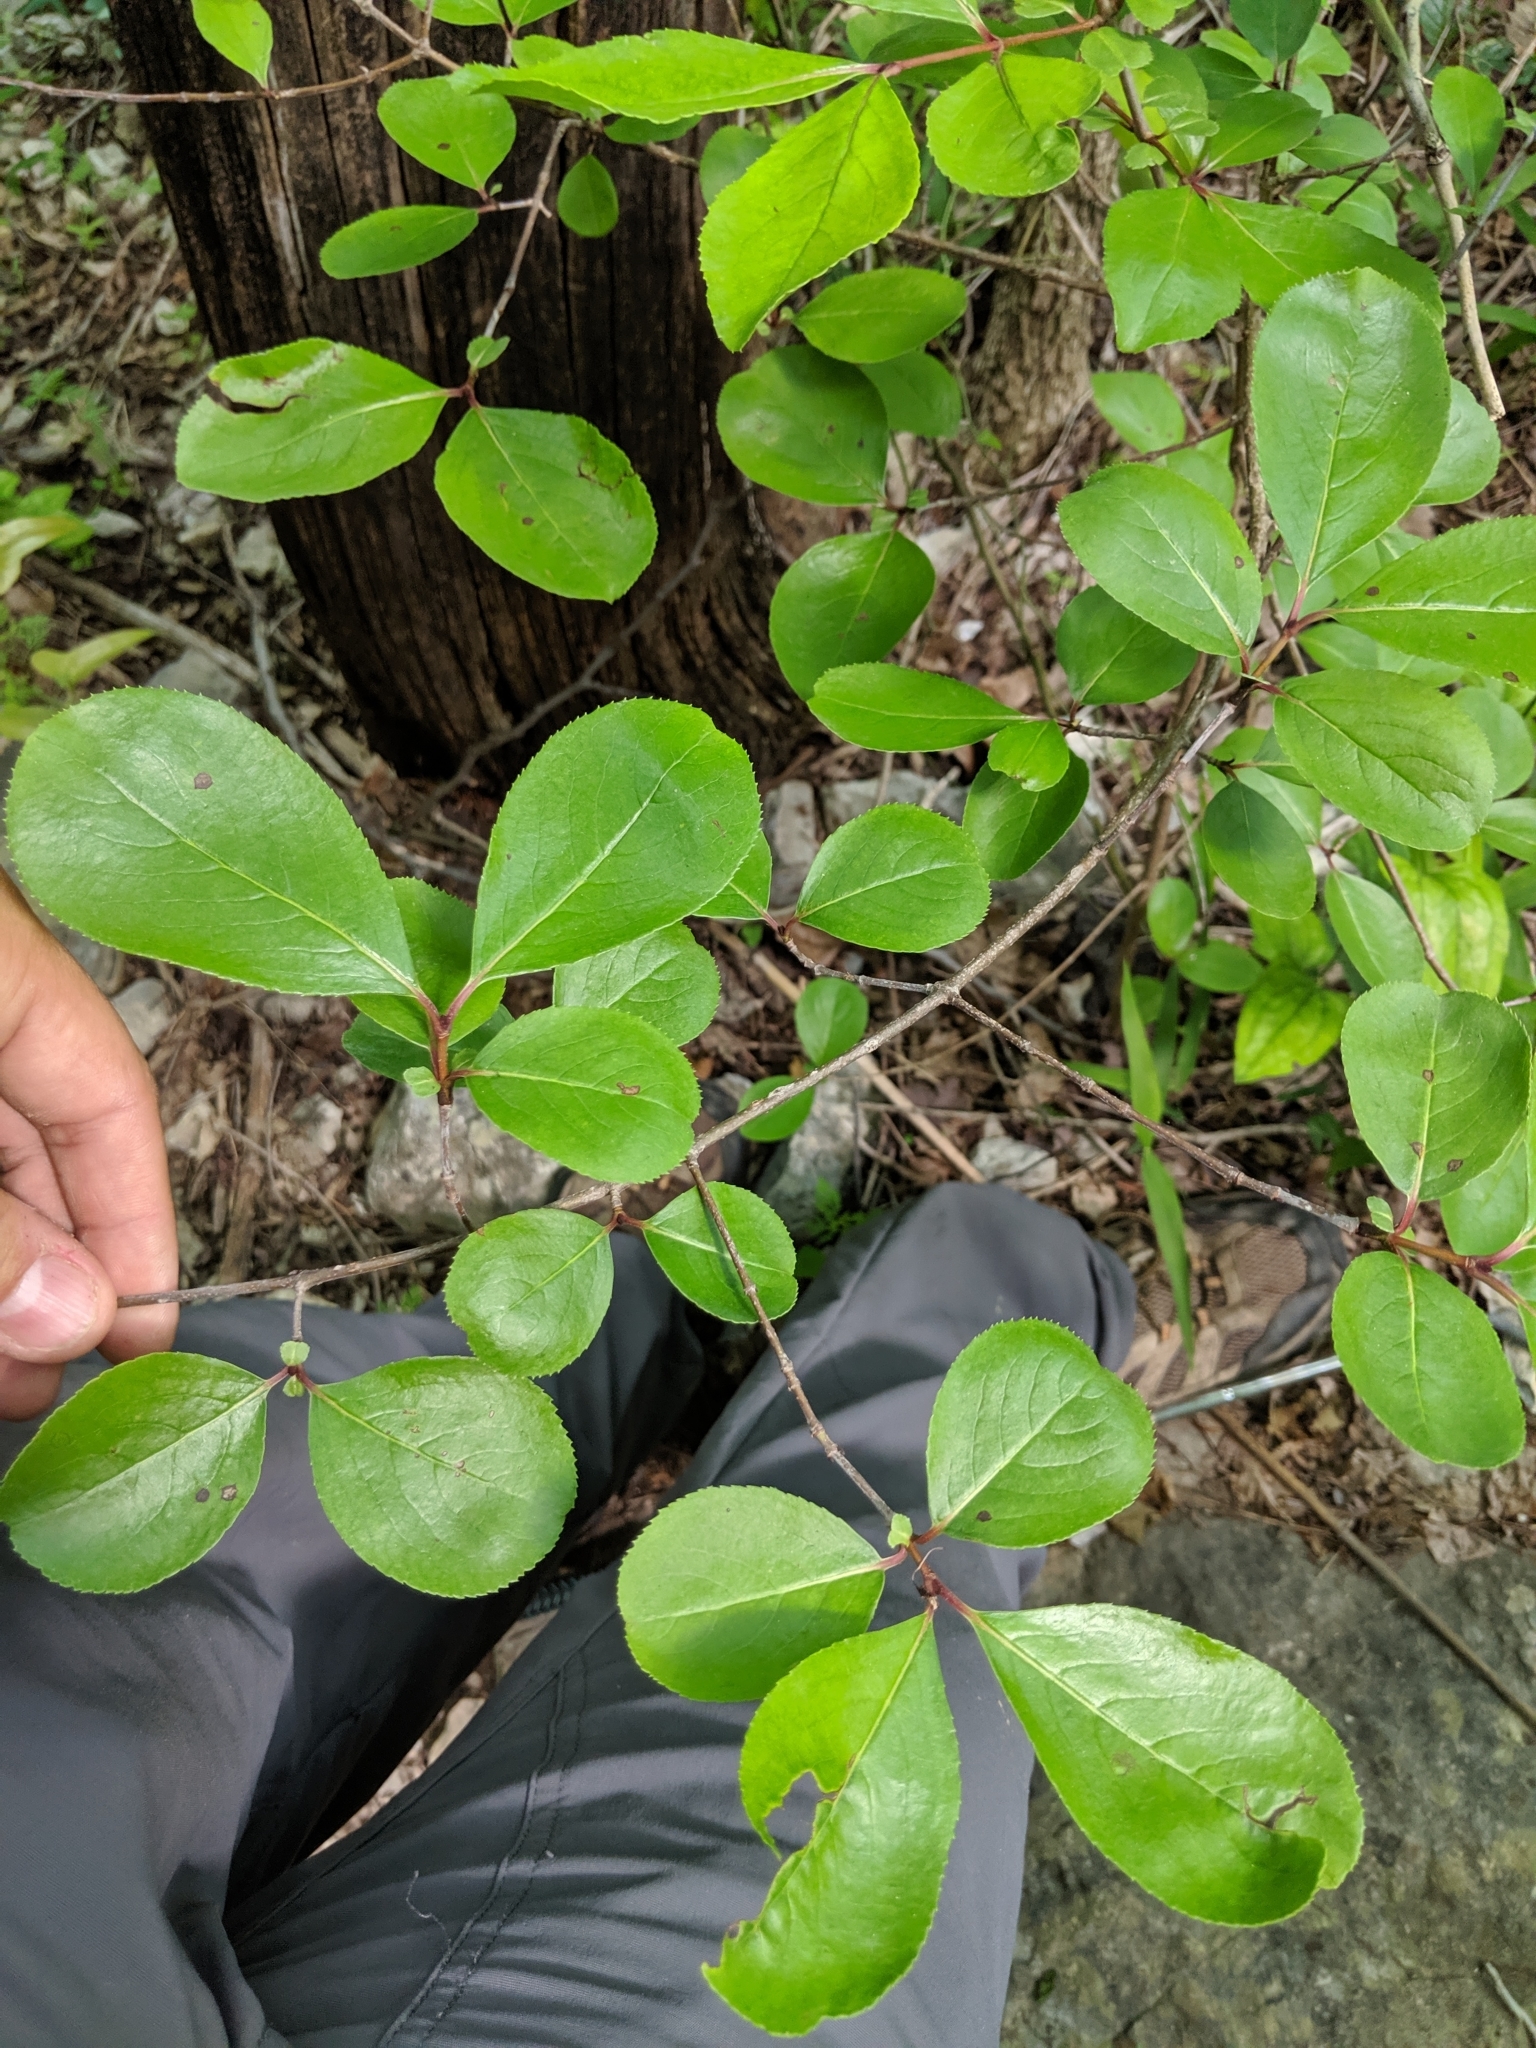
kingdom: Plantae
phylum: Tracheophyta
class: Magnoliopsida
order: Dipsacales
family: Viburnaceae
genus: Viburnum
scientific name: Viburnum rufidulum
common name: Blue haw
